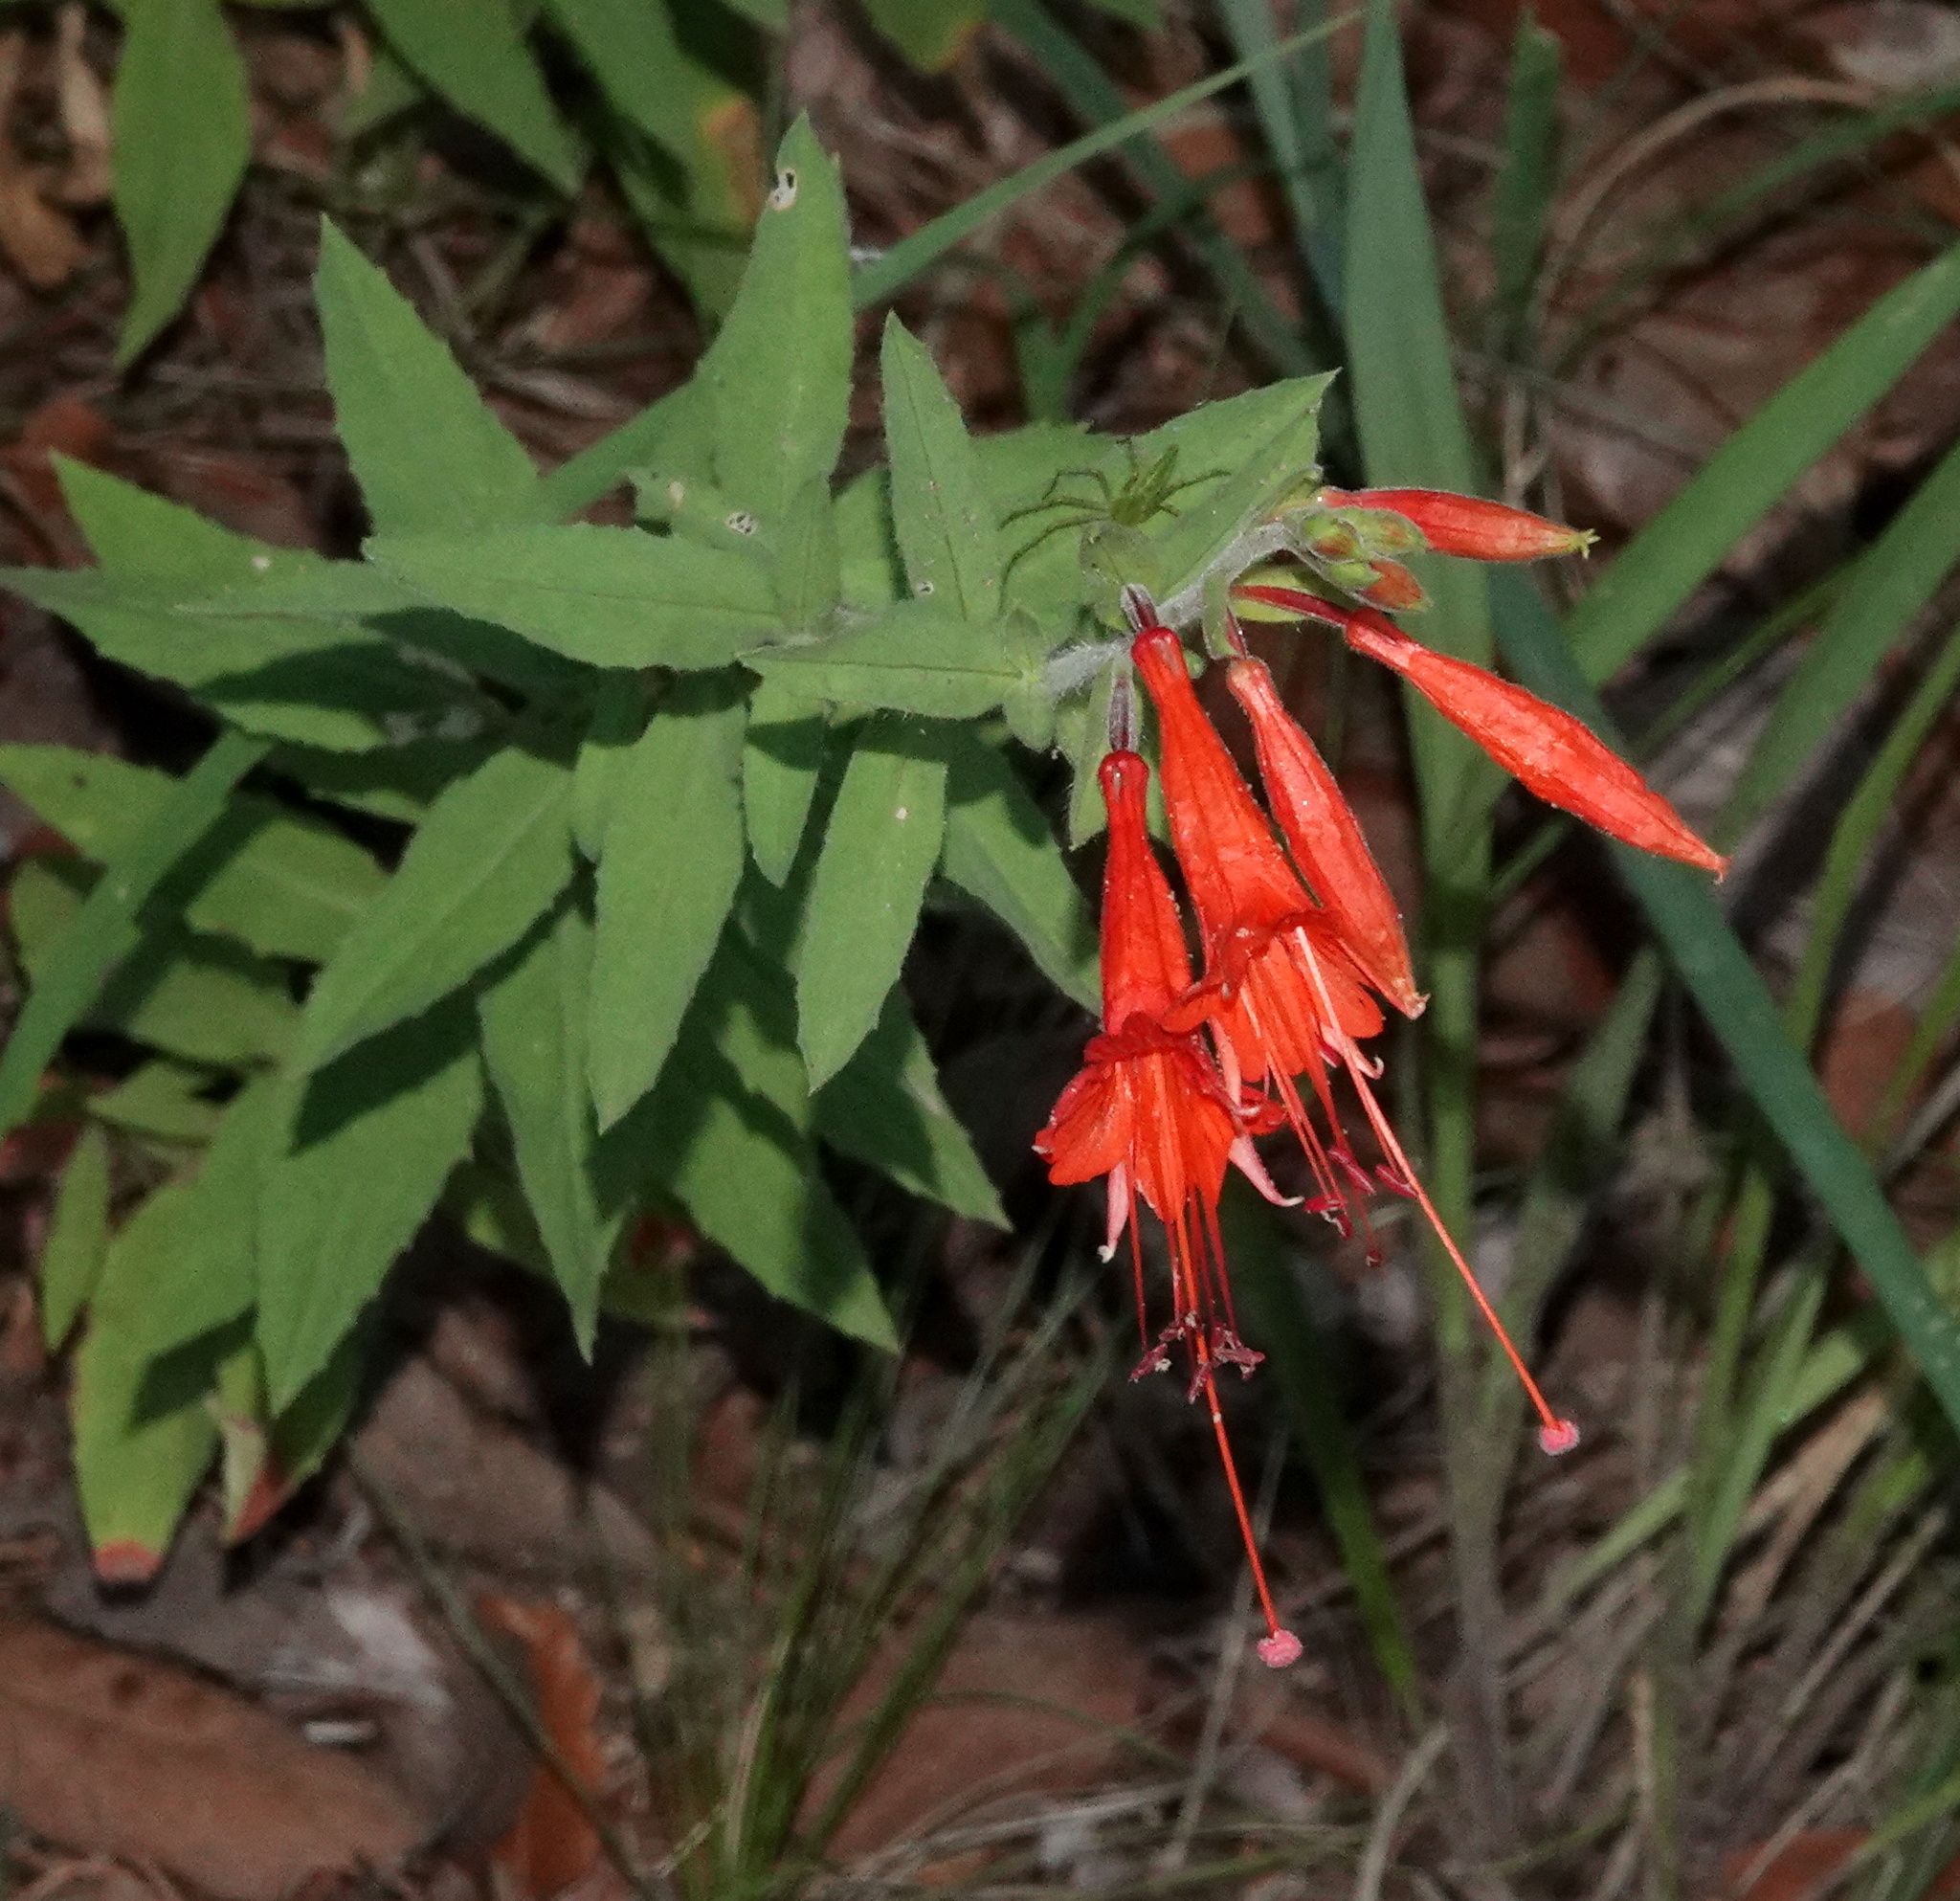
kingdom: Plantae
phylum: Tracheophyta
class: Magnoliopsida
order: Myrtales
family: Onagraceae
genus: Epilobium
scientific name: Epilobium canum
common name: California-fuchsia
